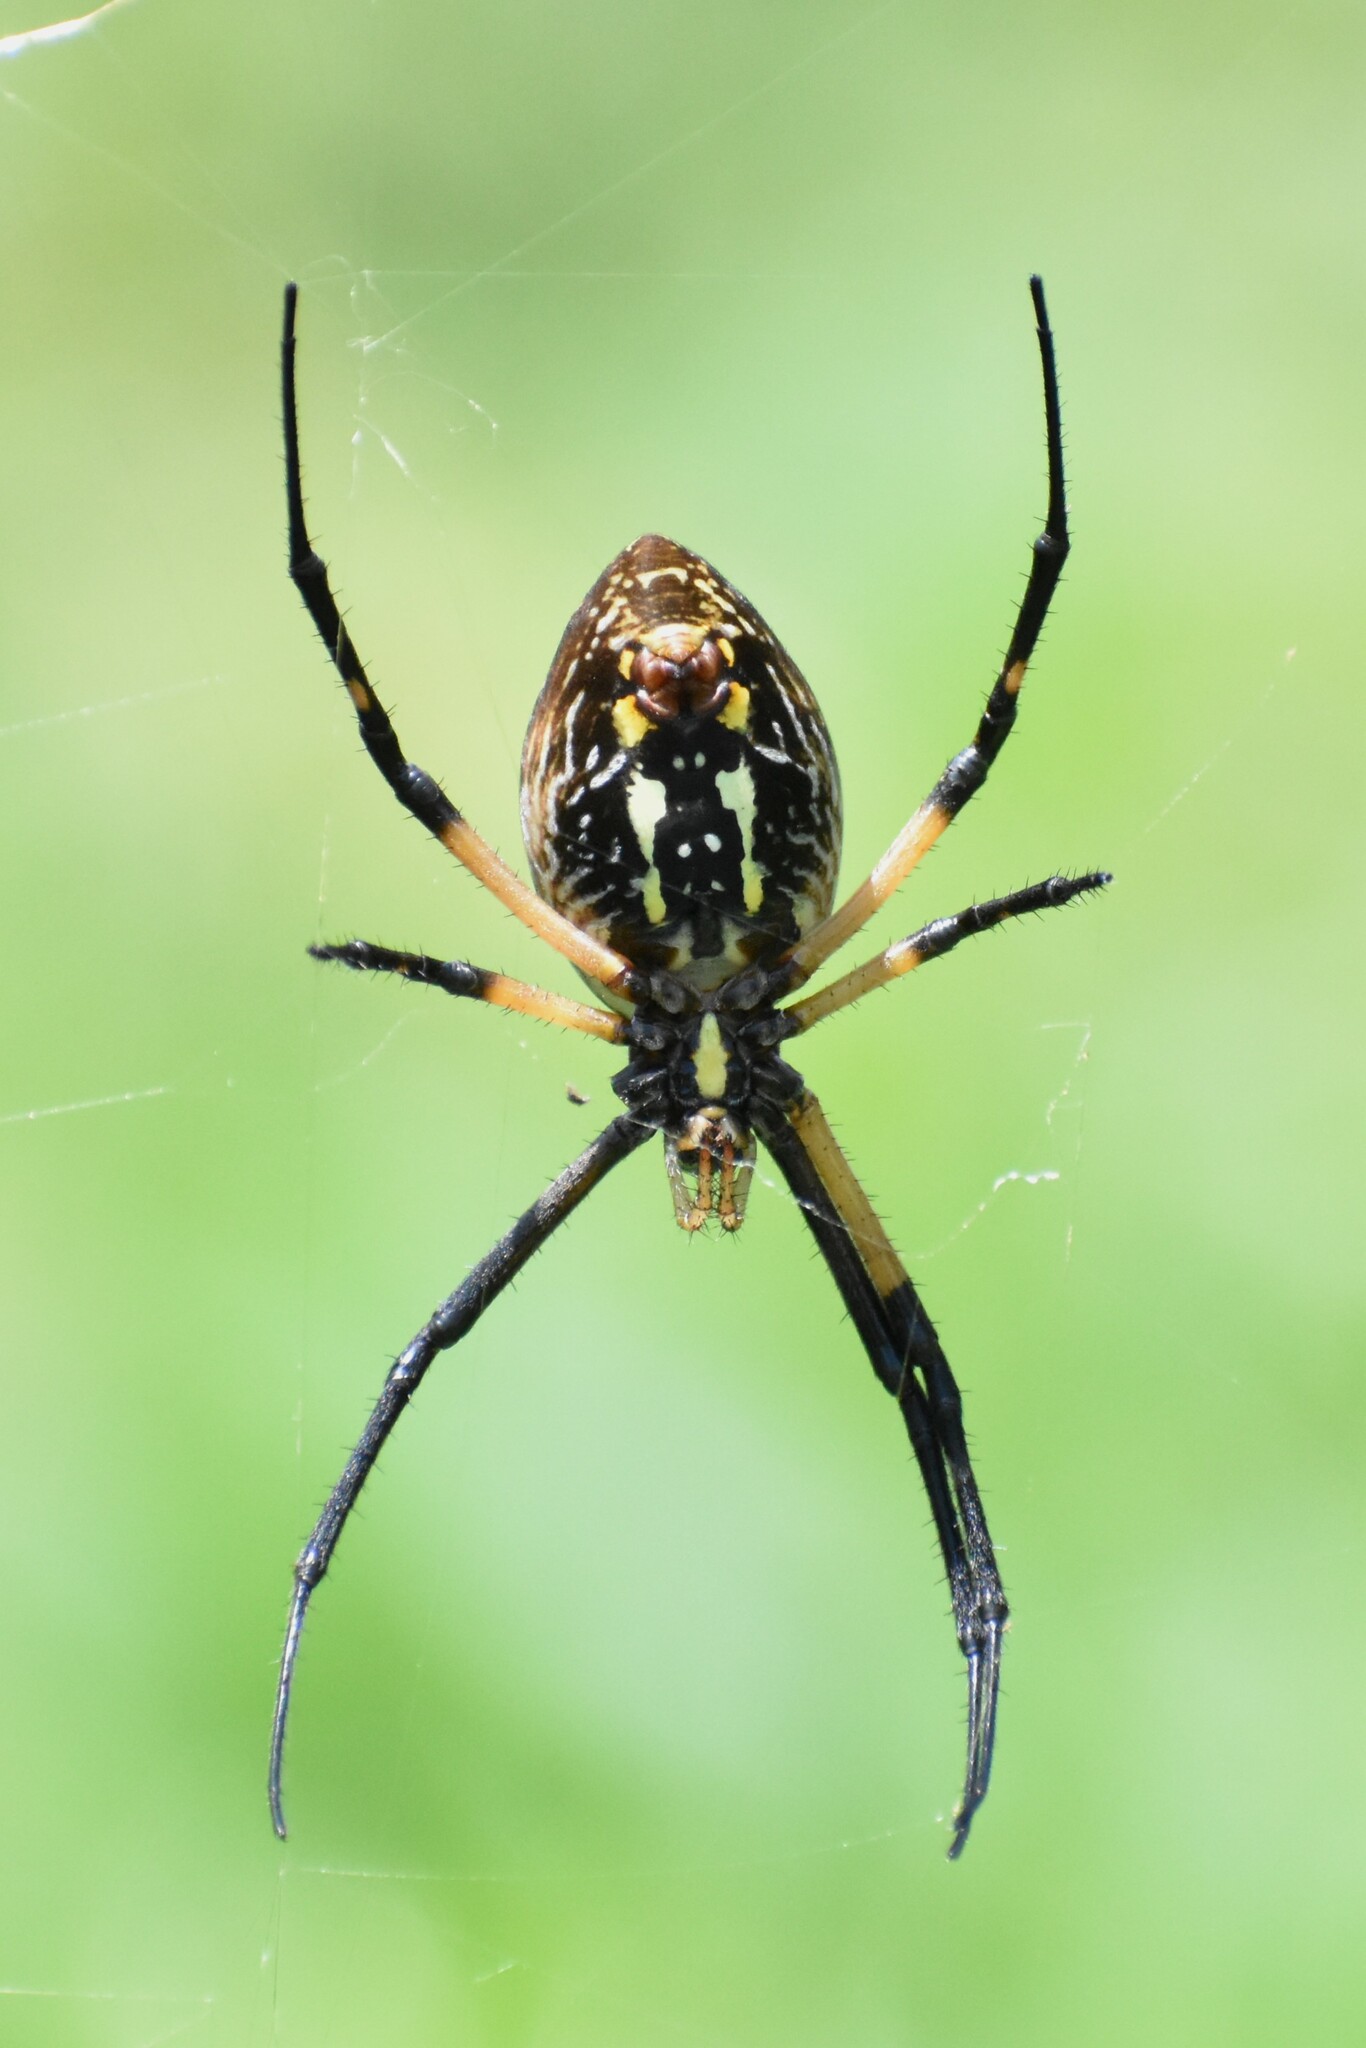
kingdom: Animalia
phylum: Arthropoda
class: Arachnida
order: Araneae
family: Araneidae
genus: Argiope
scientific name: Argiope aurantia
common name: Orb weavers
